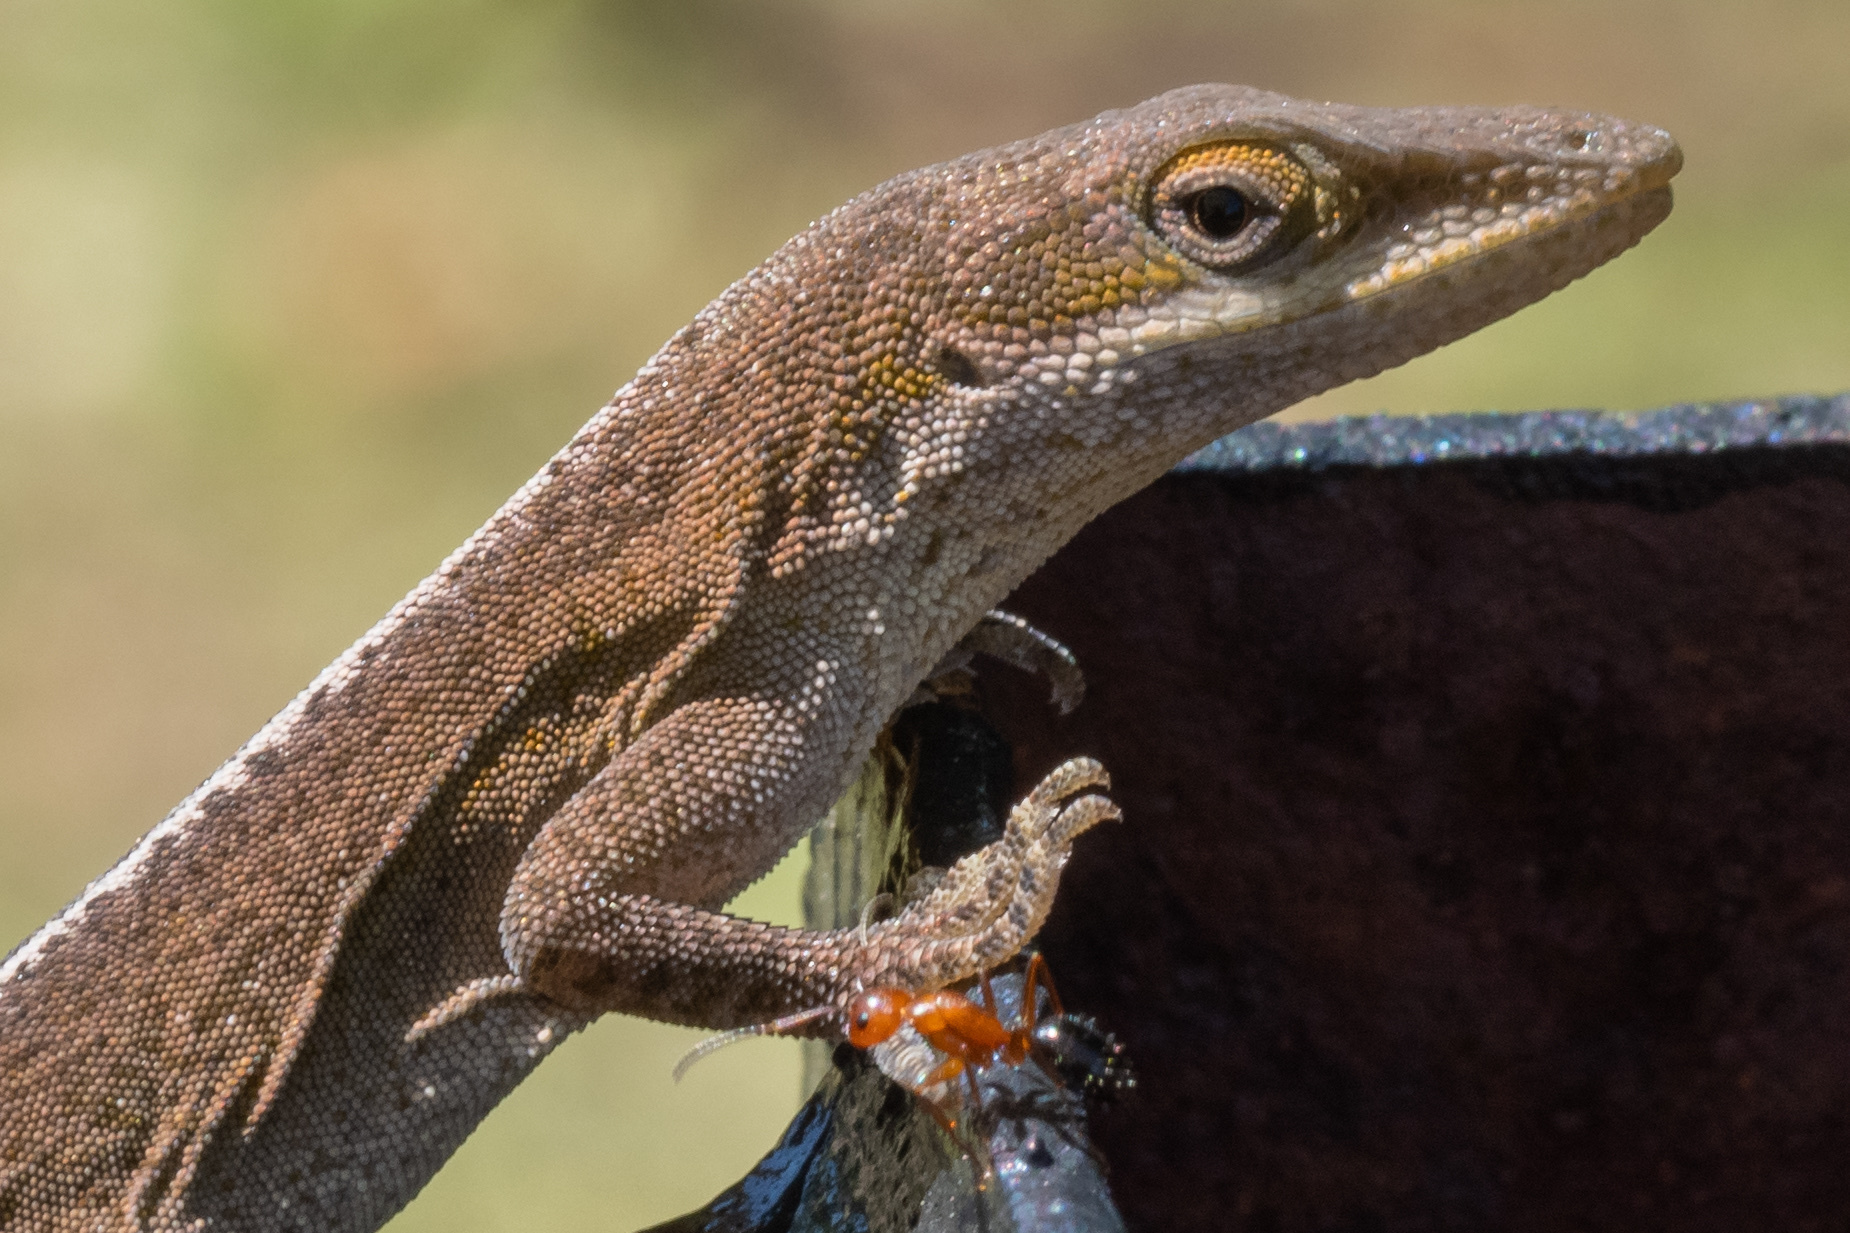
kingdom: Animalia
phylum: Chordata
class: Squamata
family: Dactyloidae
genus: Anolis
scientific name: Anolis carolinensis
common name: Green anole
